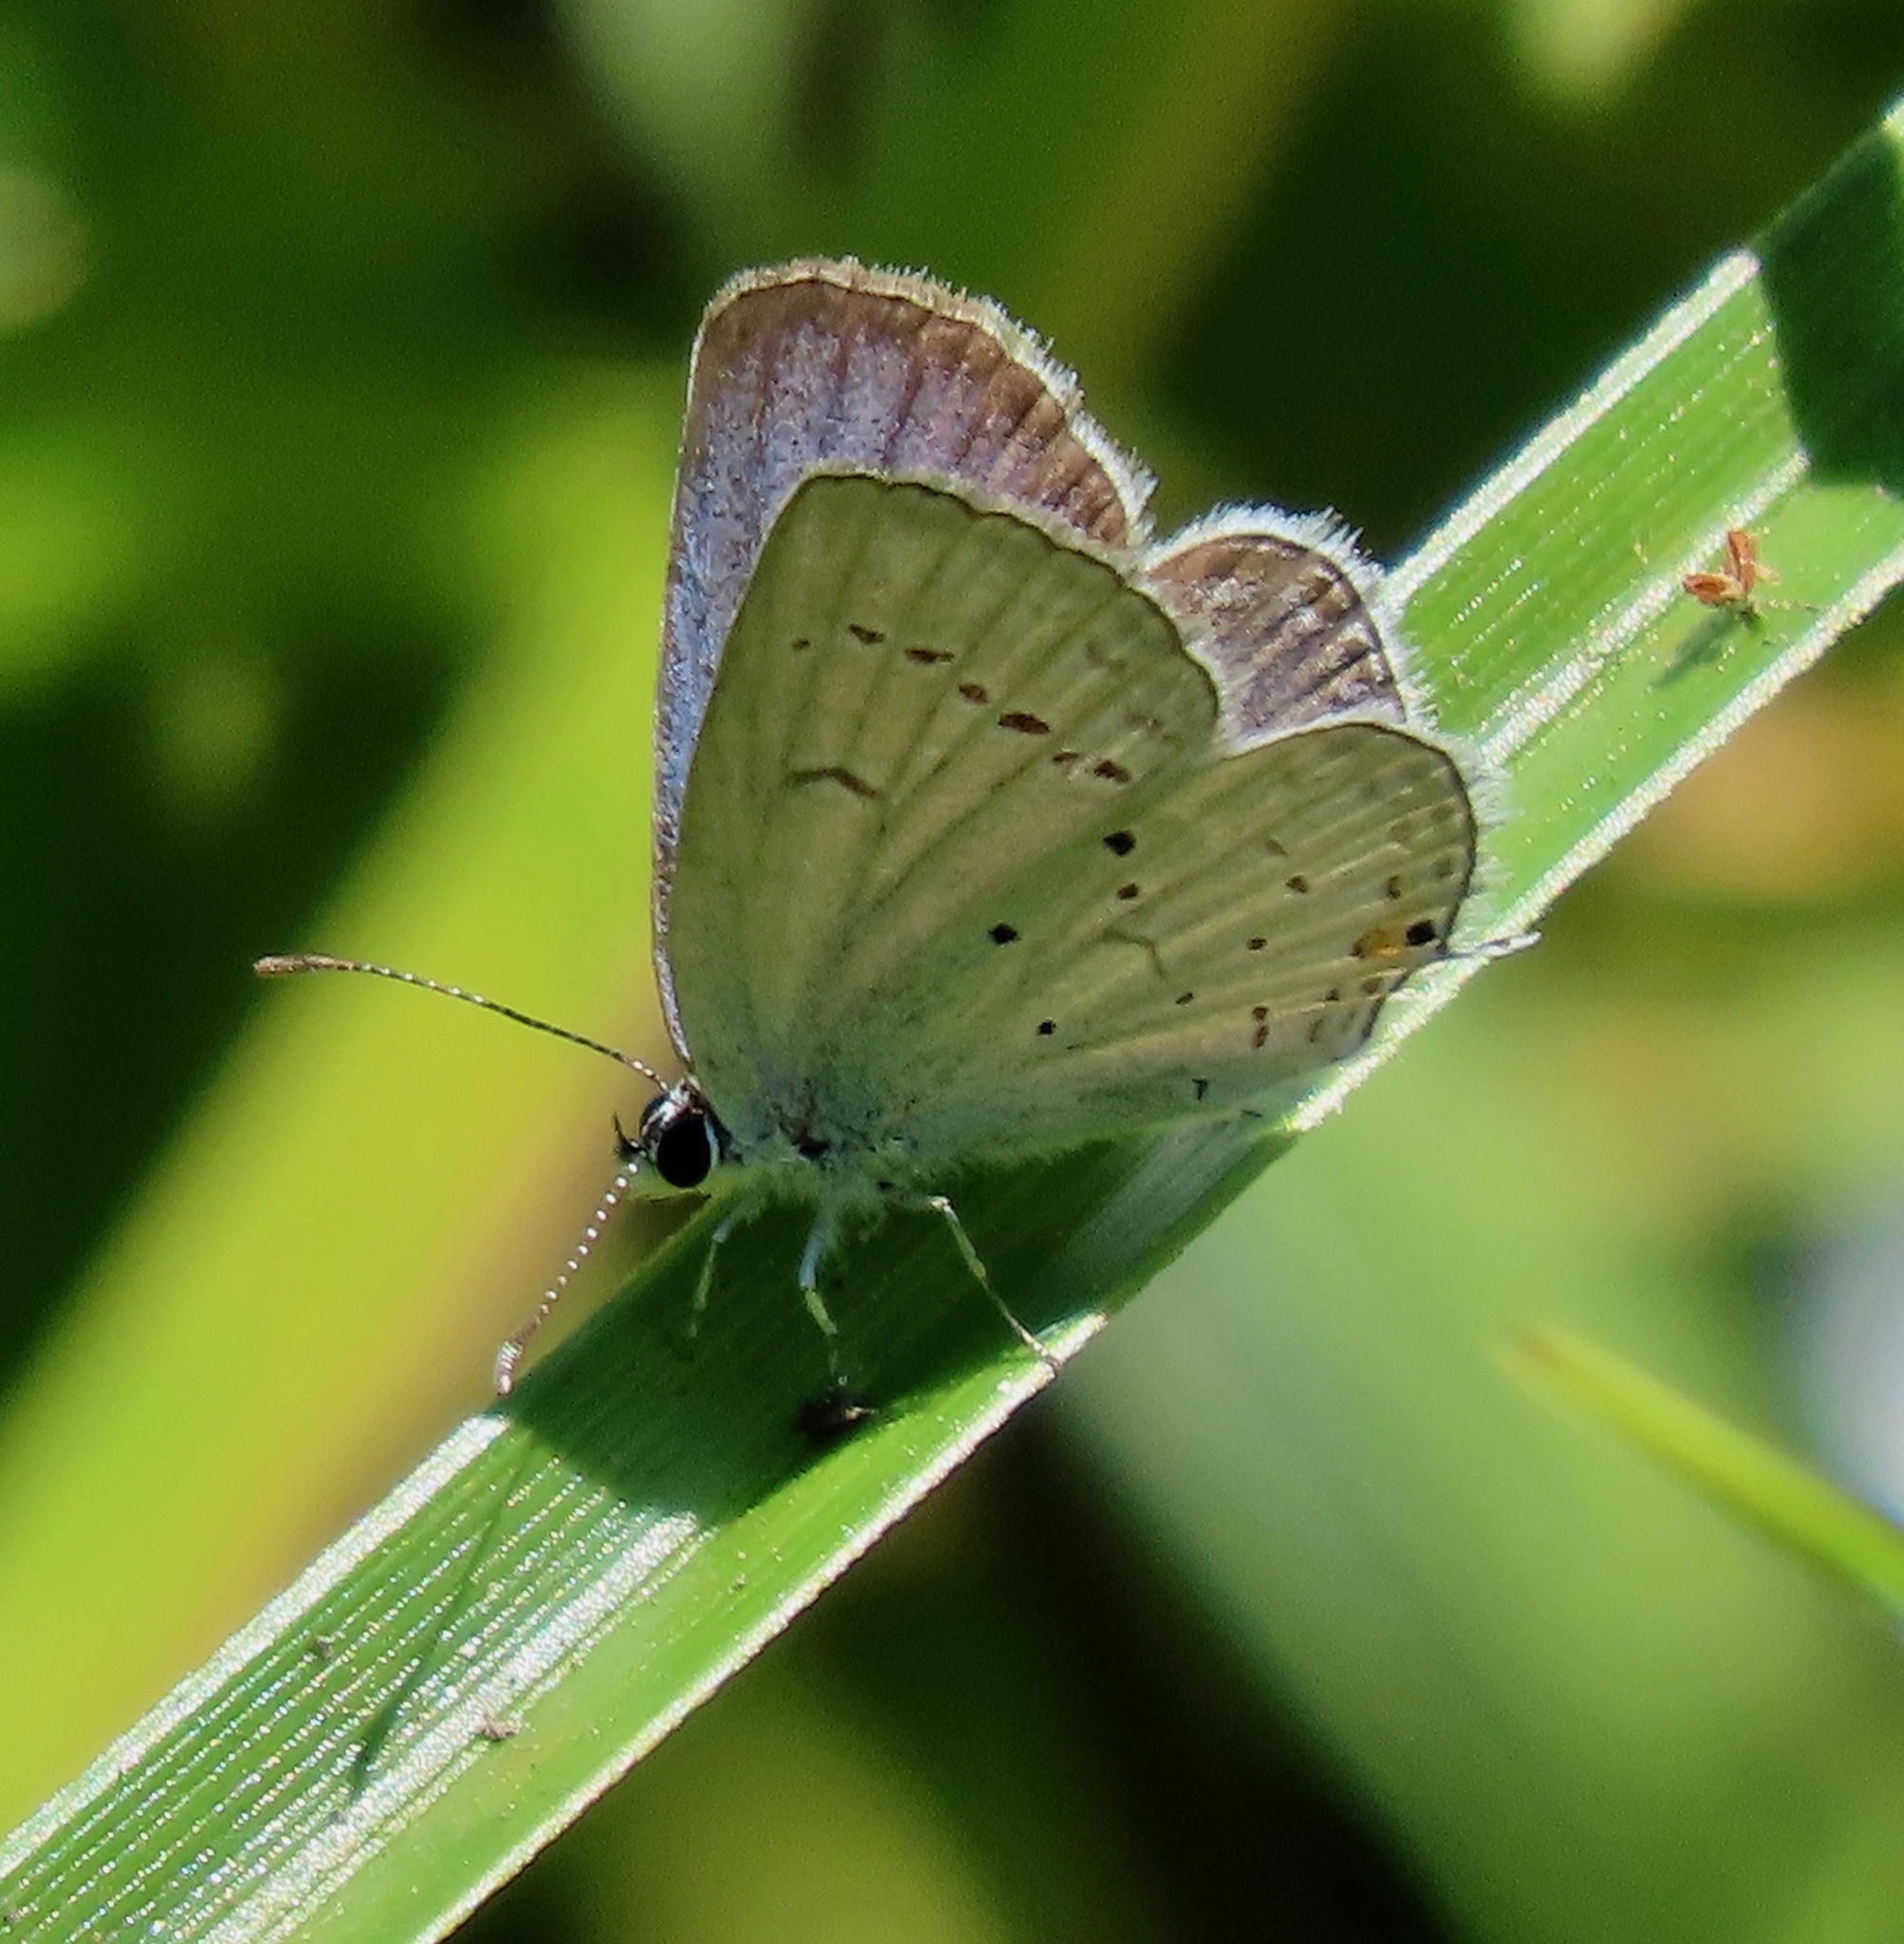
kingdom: Animalia
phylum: Arthropoda
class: Insecta
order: Lepidoptera
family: Lycaenidae
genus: Elkalyce
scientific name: Elkalyce comyntas
